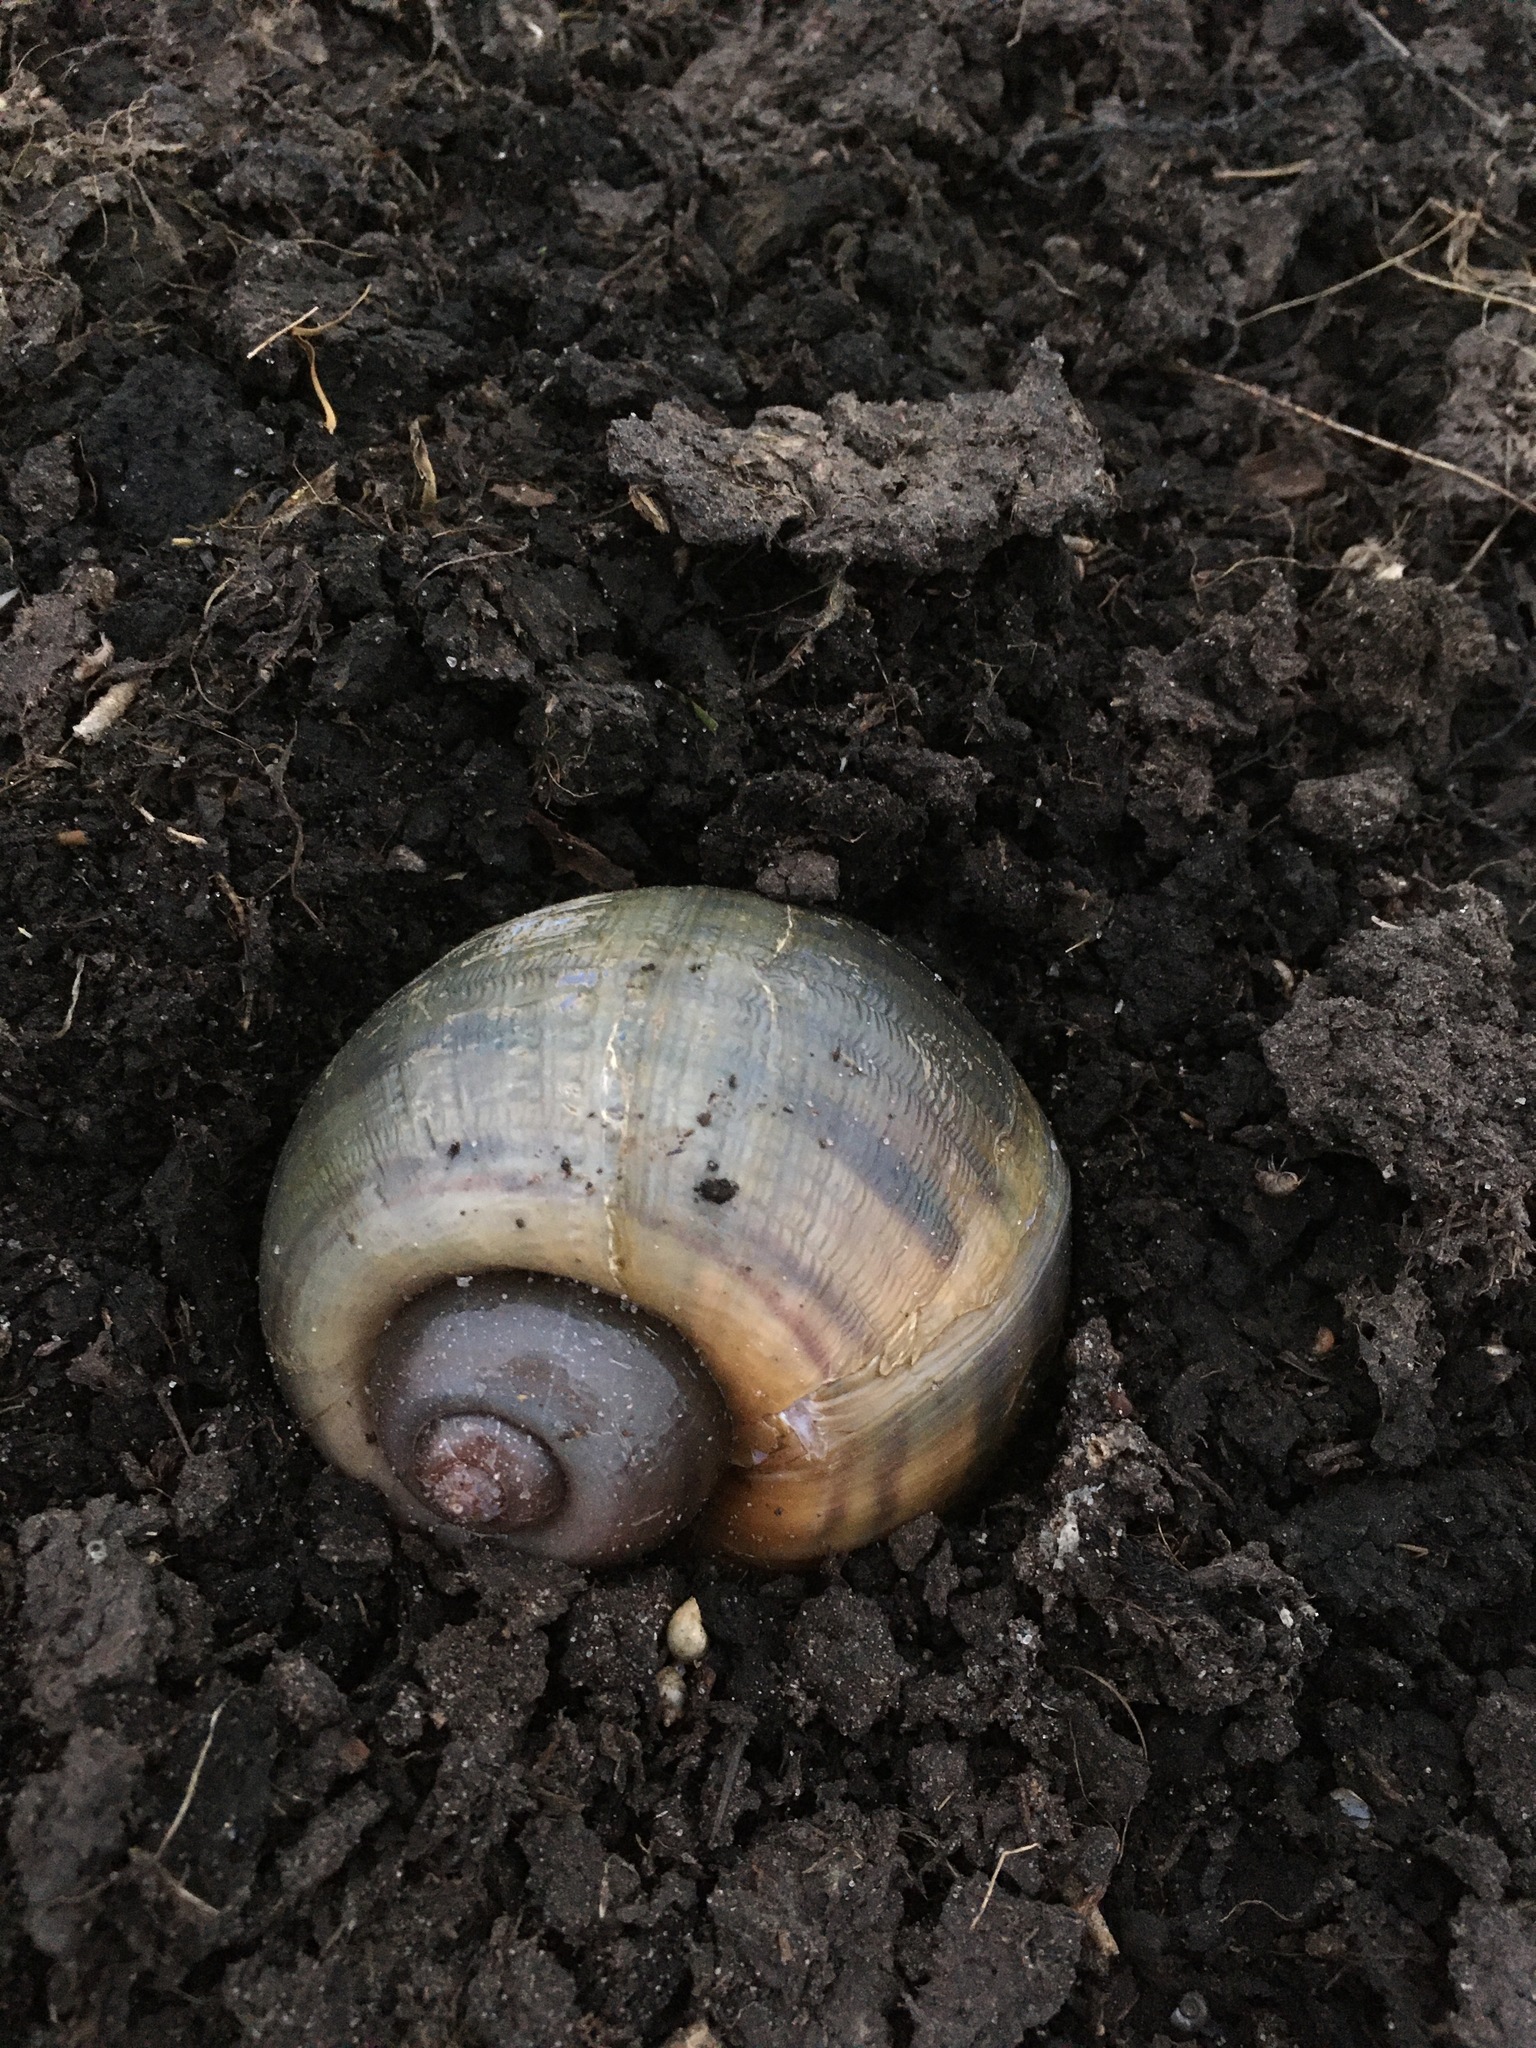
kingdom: Animalia
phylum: Mollusca
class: Gastropoda
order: Architaenioglossa
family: Ampullariidae
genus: Pomacea
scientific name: Pomacea maculata
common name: Giant applesnail
